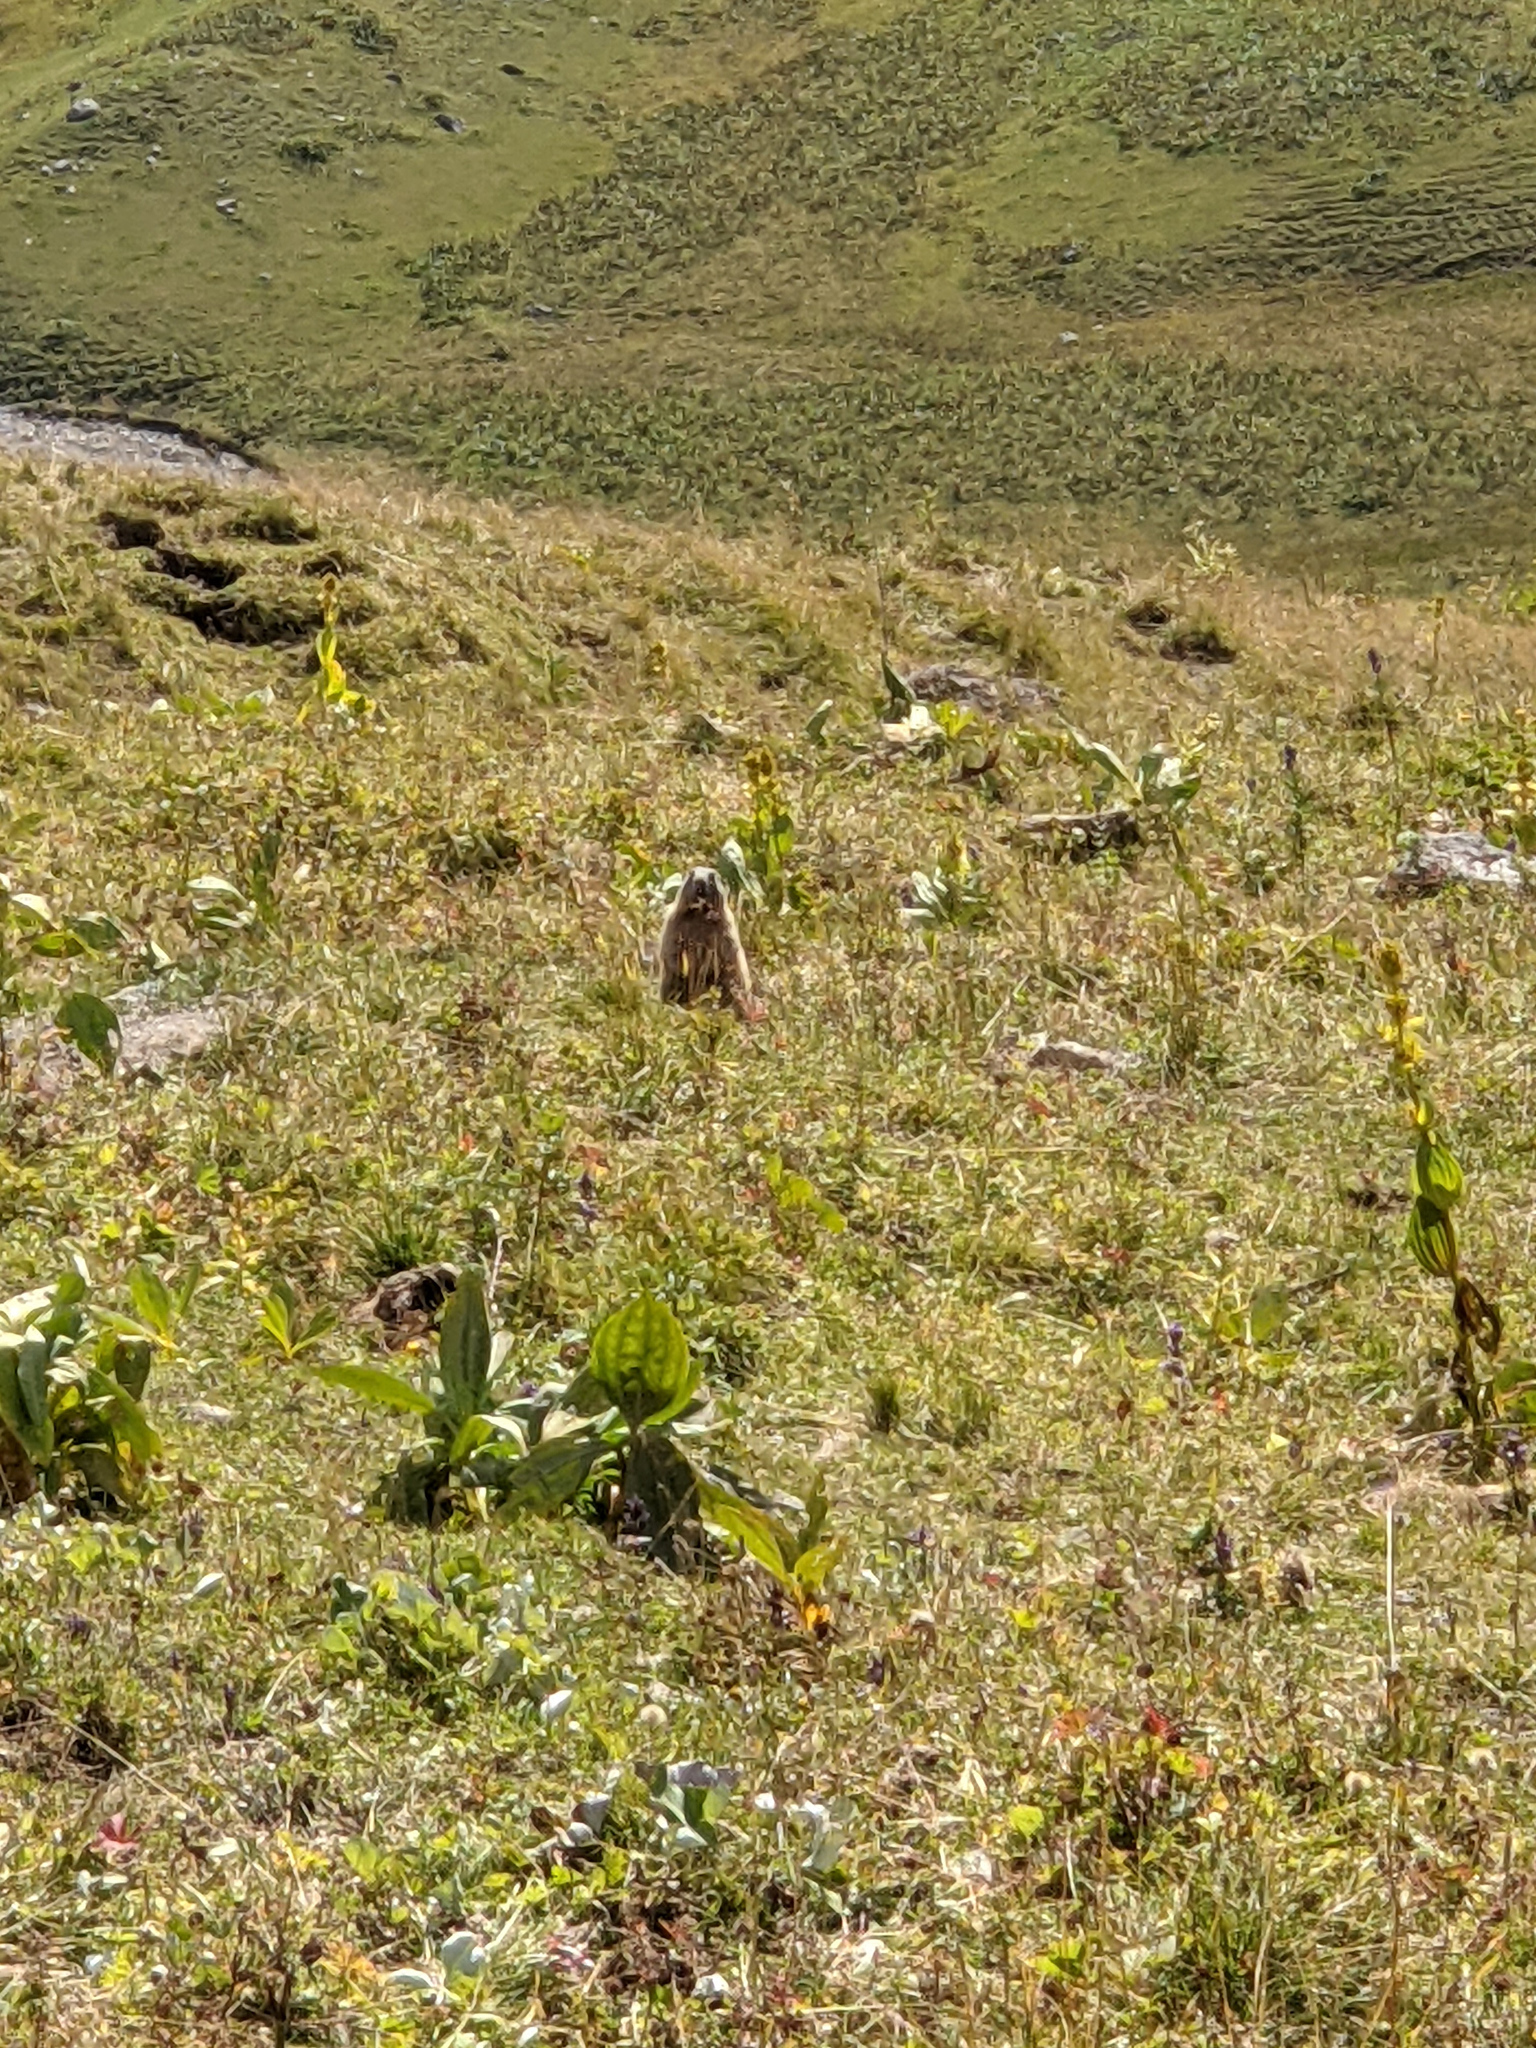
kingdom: Animalia
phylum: Chordata
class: Mammalia
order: Rodentia
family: Sciuridae
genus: Marmota
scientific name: Marmota marmota
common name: Alpine marmot
